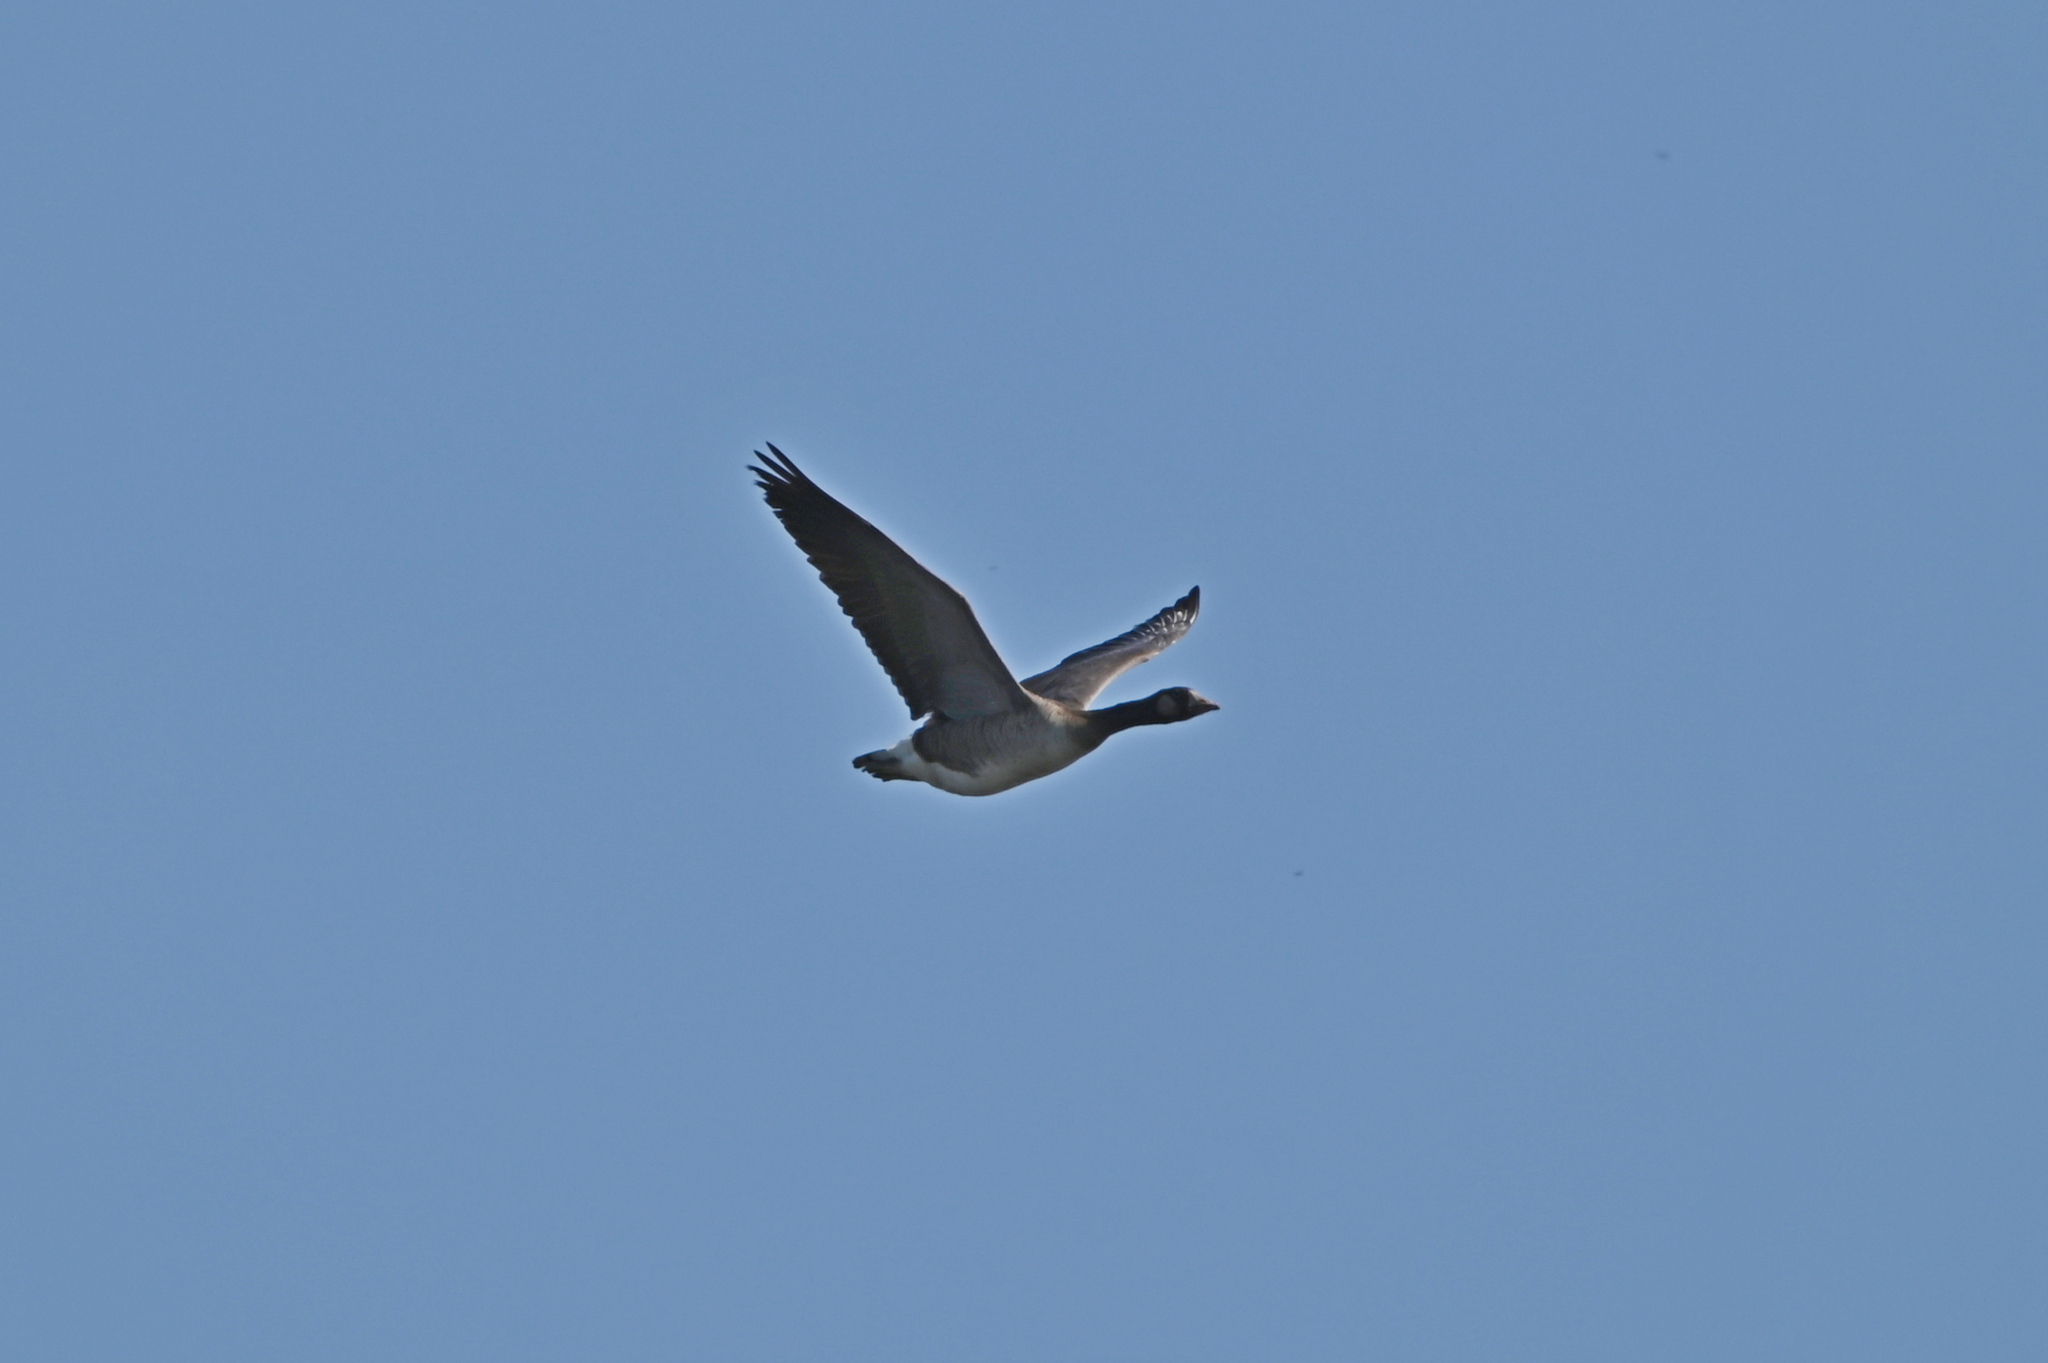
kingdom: Animalia
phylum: Chordata
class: Aves
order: Anseriformes
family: Anatidae
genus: Branta
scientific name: Branta canadensis
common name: Canada goose
